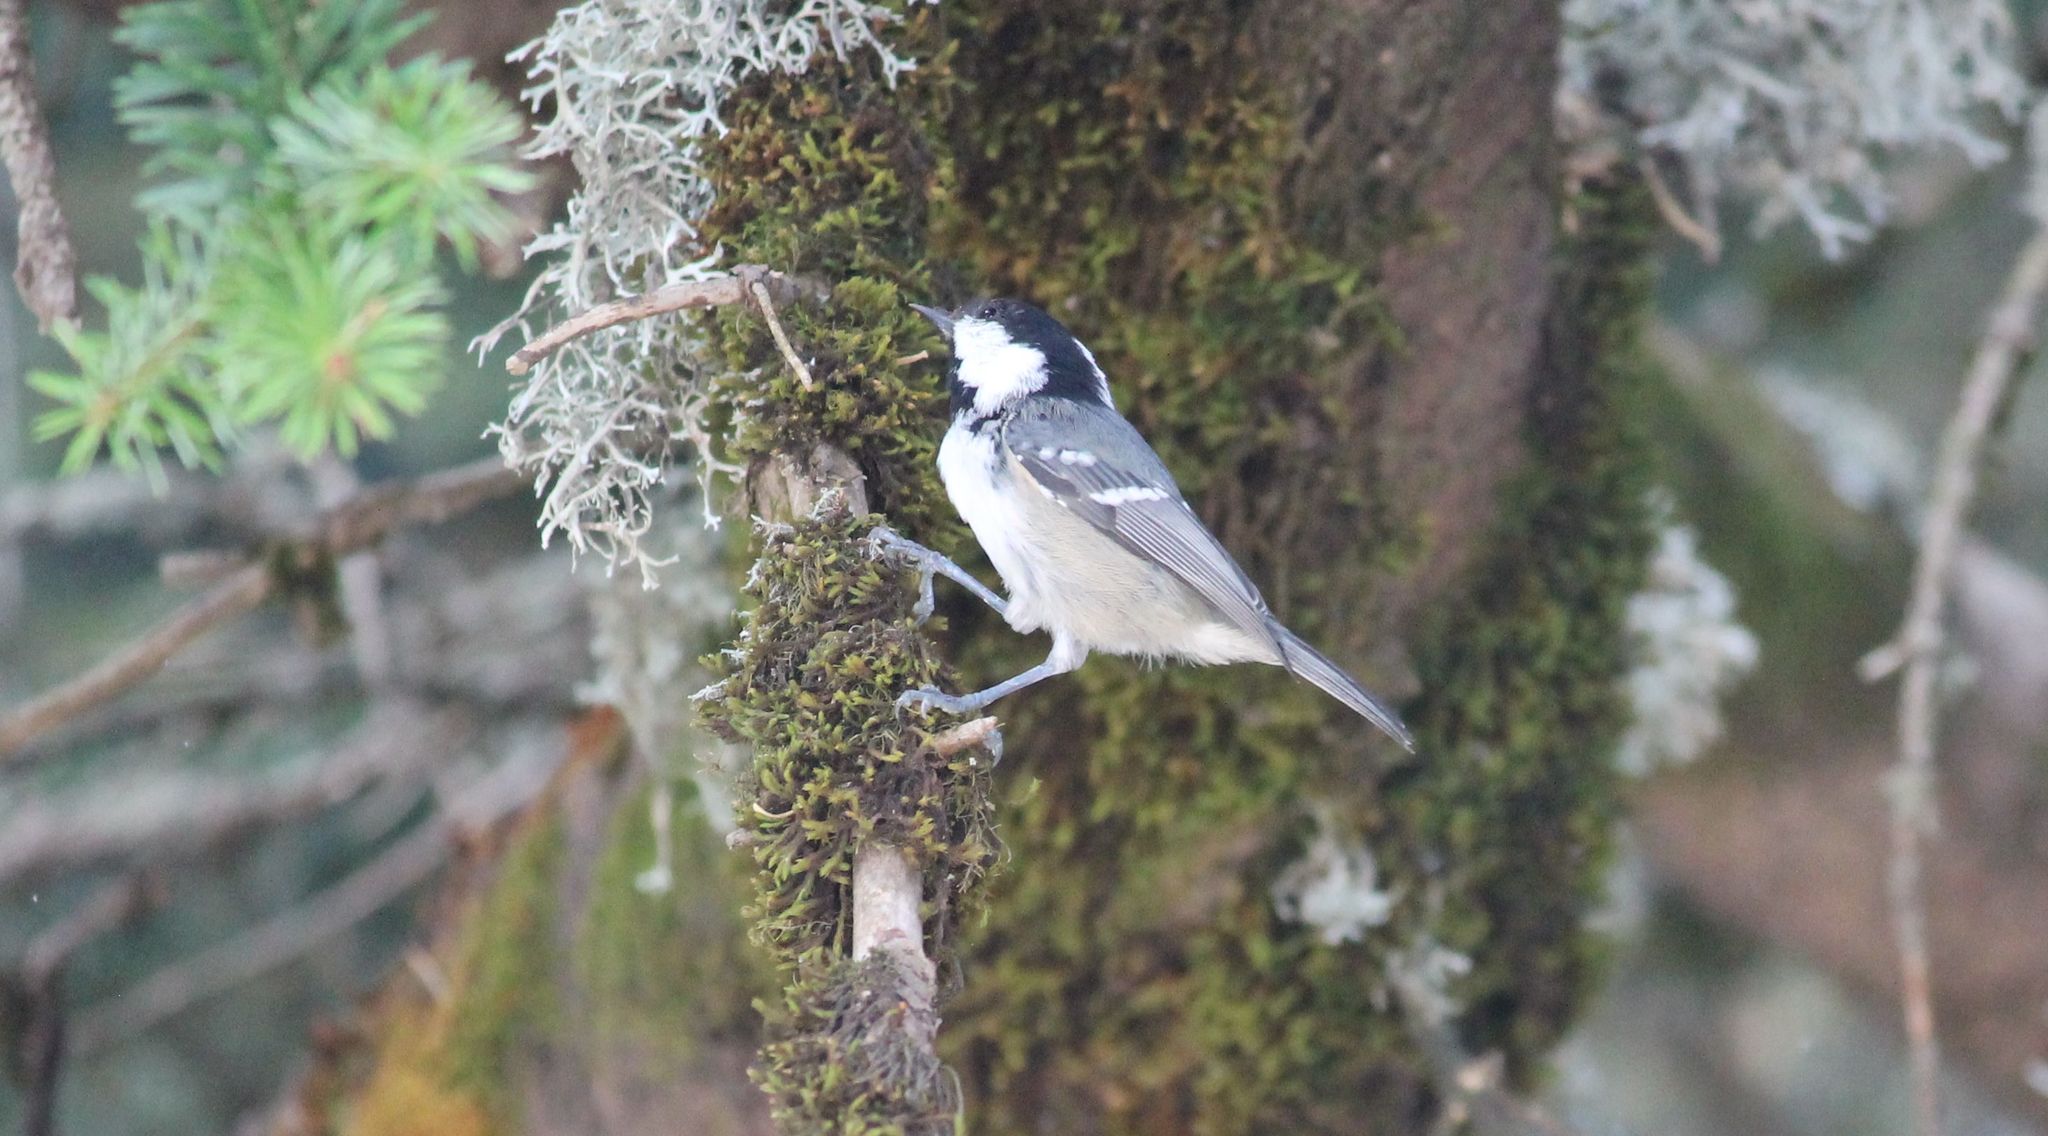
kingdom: Animalia
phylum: Chordata
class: Aves
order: Passeriformes
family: Paridae
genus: Periparus
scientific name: Periparus ater
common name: Coal tit
